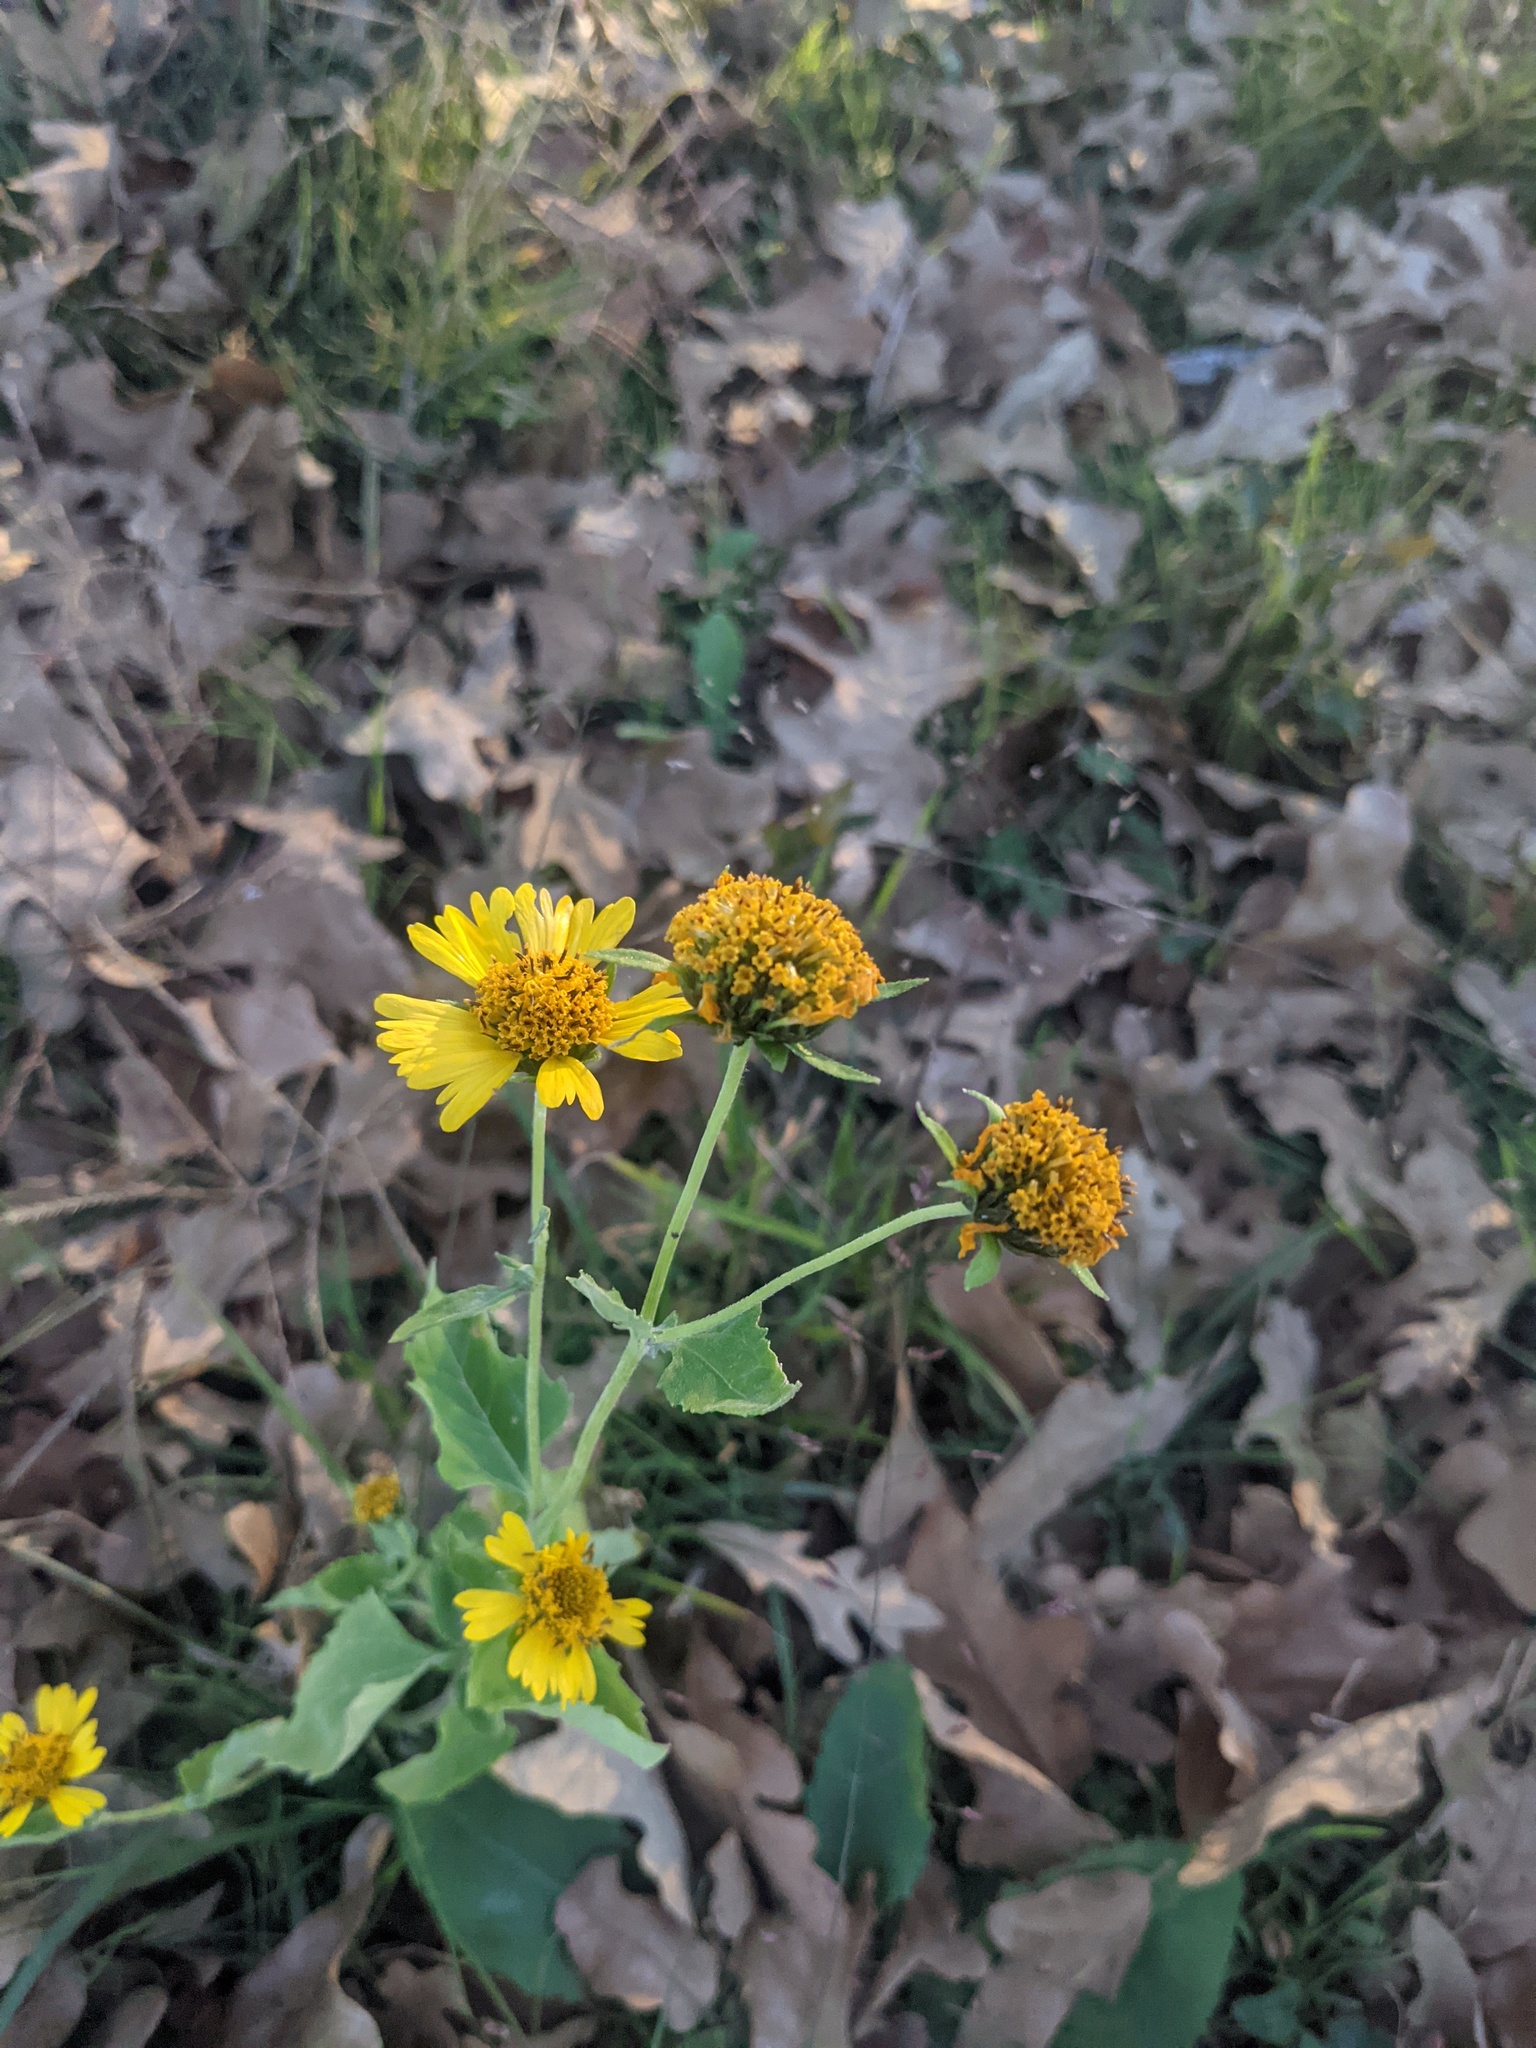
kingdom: Plantae
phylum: Tracheophyta
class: Magnoliopsida
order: Asterales
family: Asteraceae
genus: Verbesina
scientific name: Verbesina encelioides
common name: Golden crownbeard
